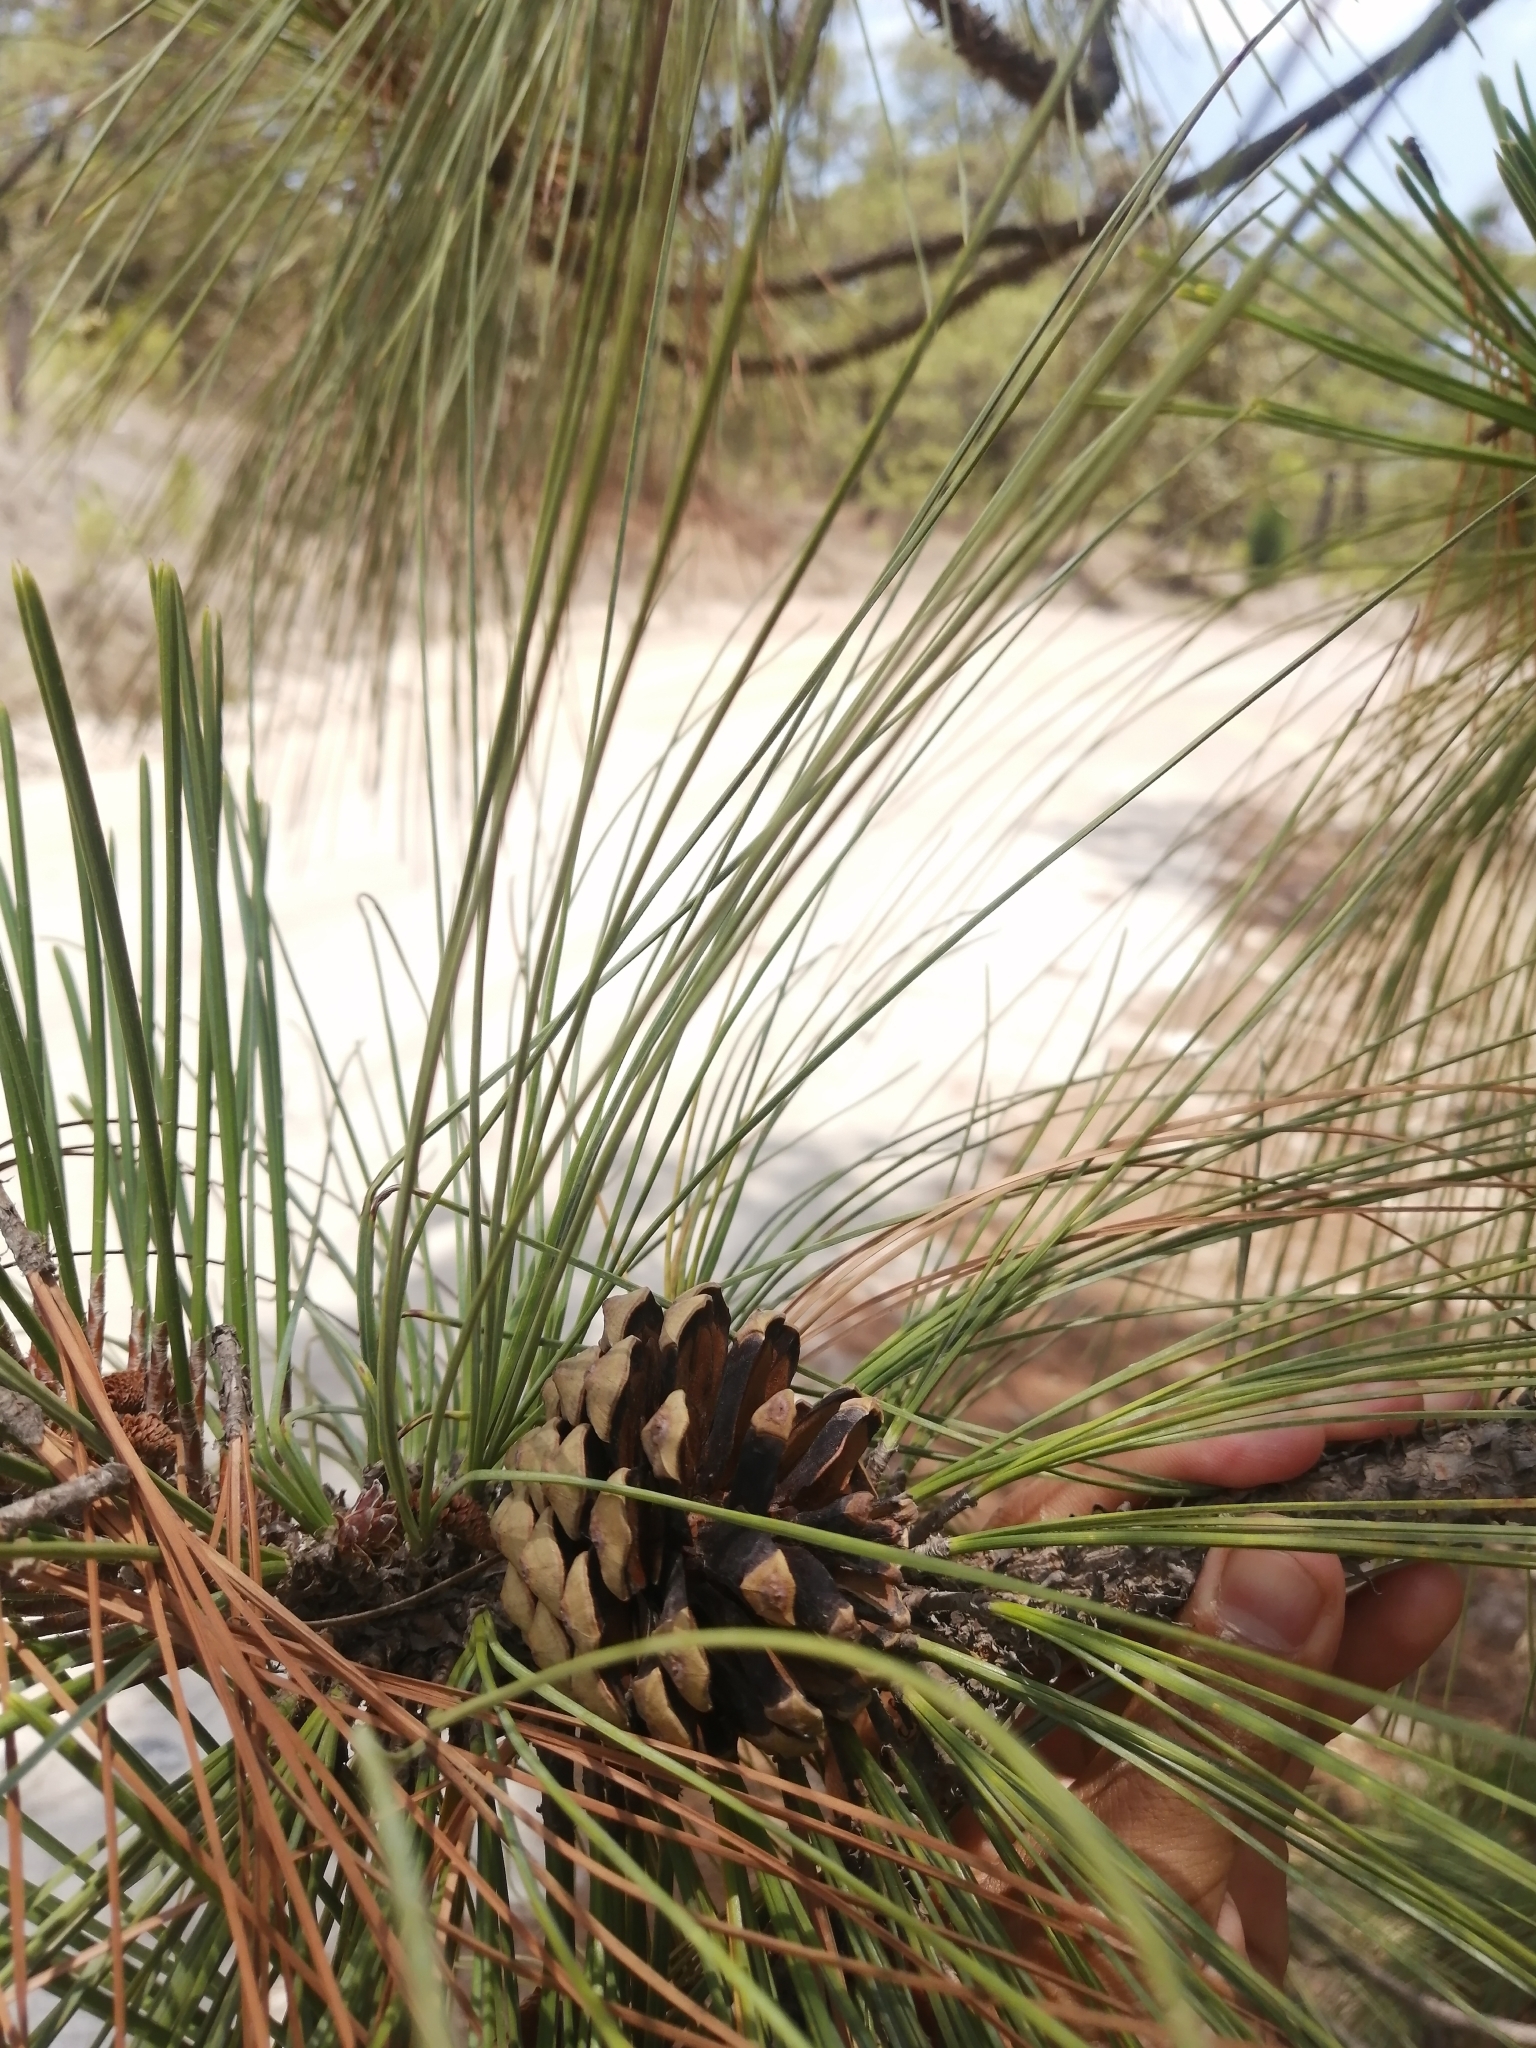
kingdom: Plantae
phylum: Tracheophyta
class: Pinopsida
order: Pinales
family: Pinaceae
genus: Pinus
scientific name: Pinus oocarpa
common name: Egg-cone pine
